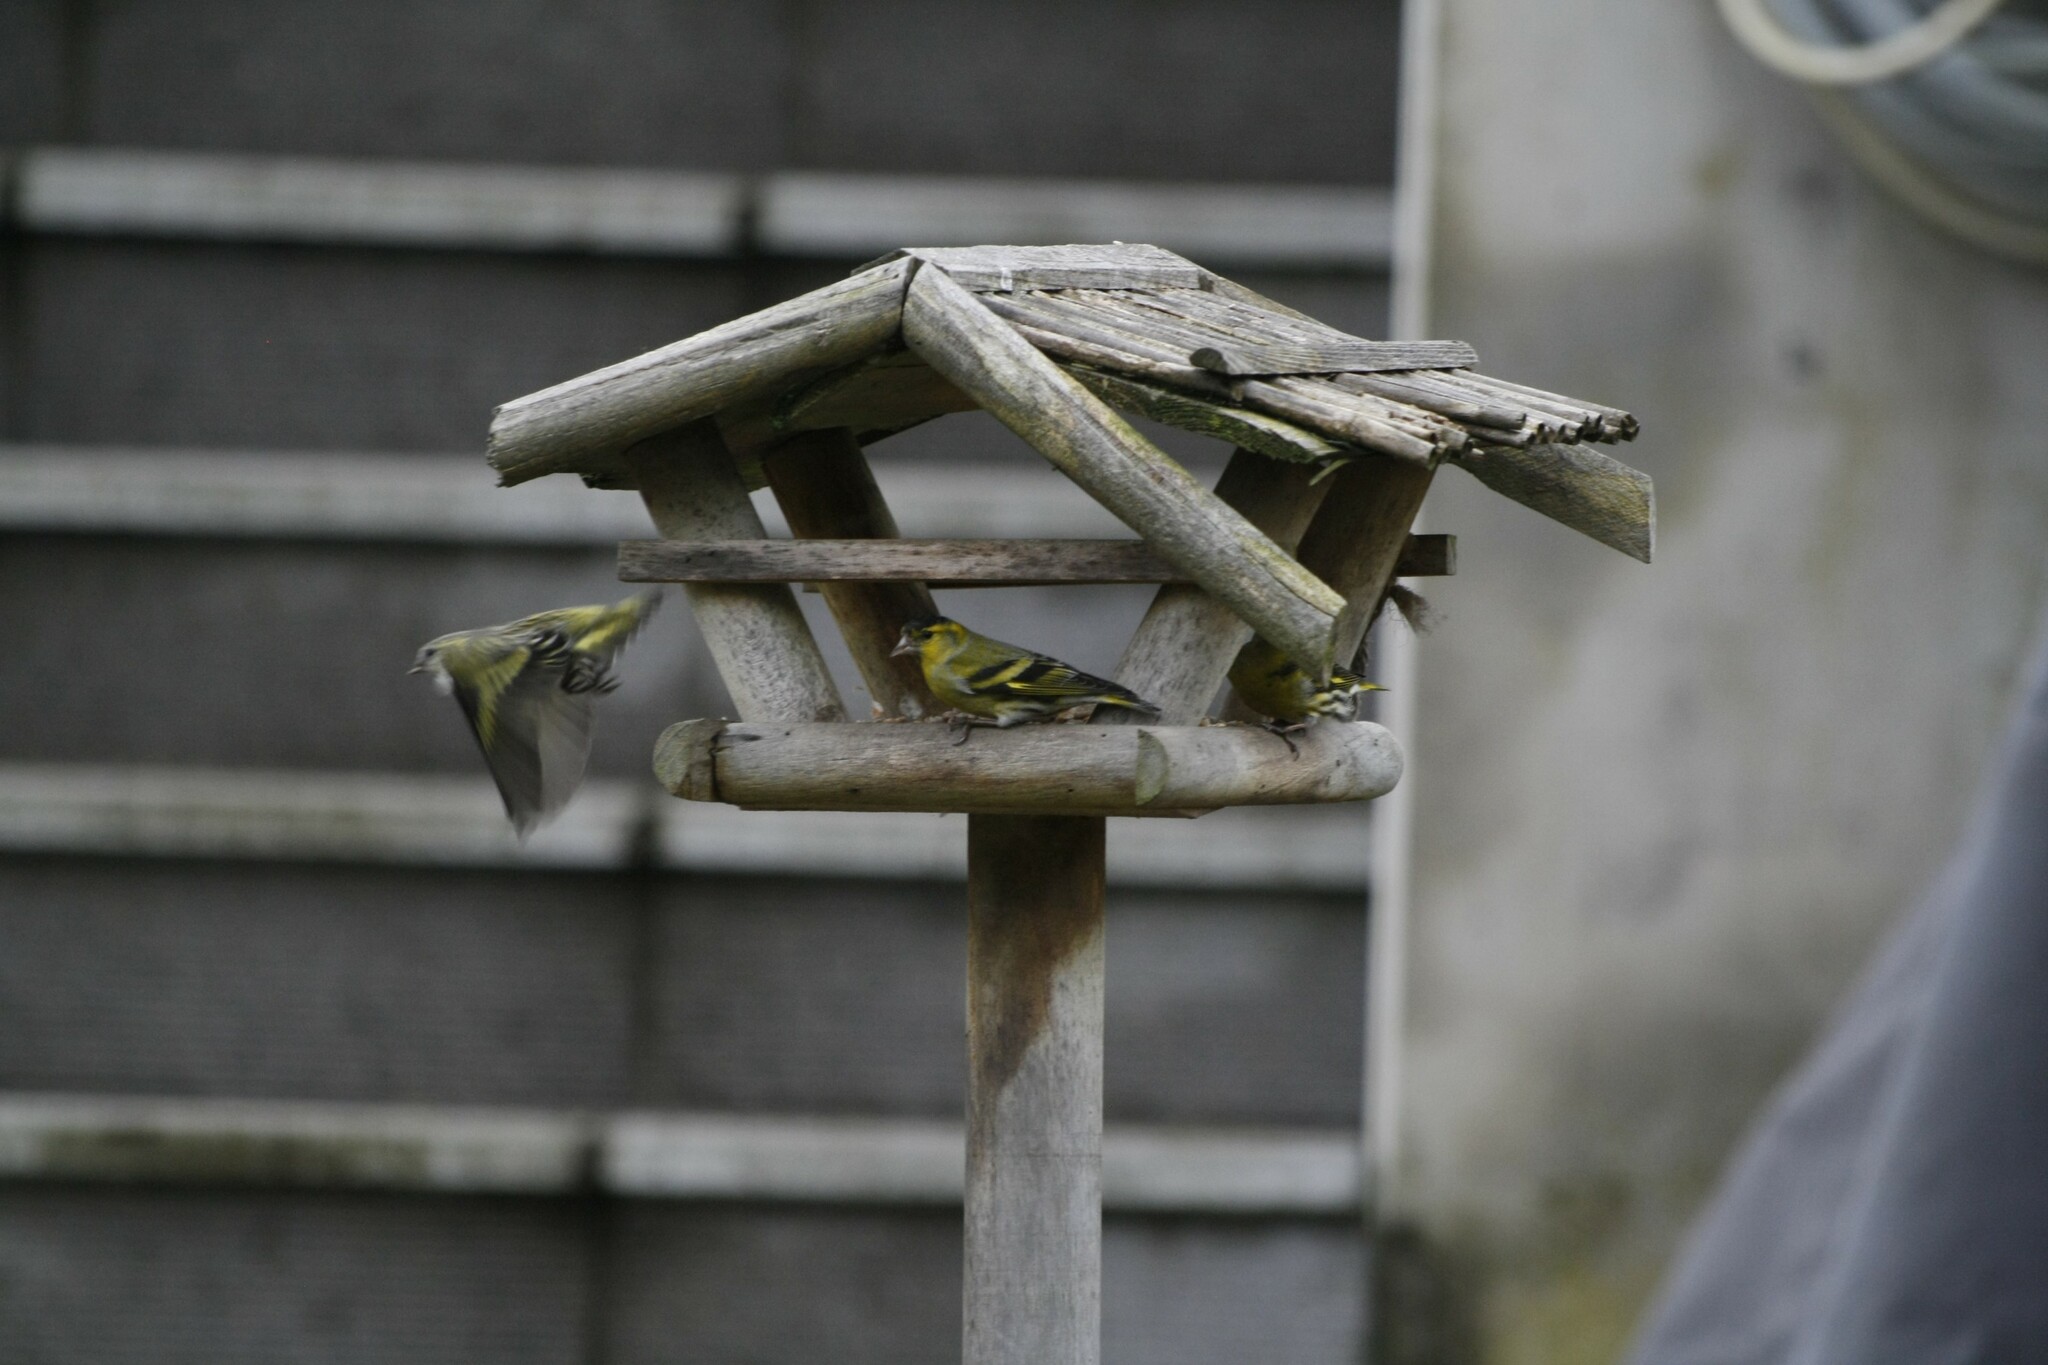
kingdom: Animalia
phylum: Chordata
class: Aves
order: Passeriformes
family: Fringillidae
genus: Spinus
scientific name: Spinus spinus
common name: Eurasian siskin
